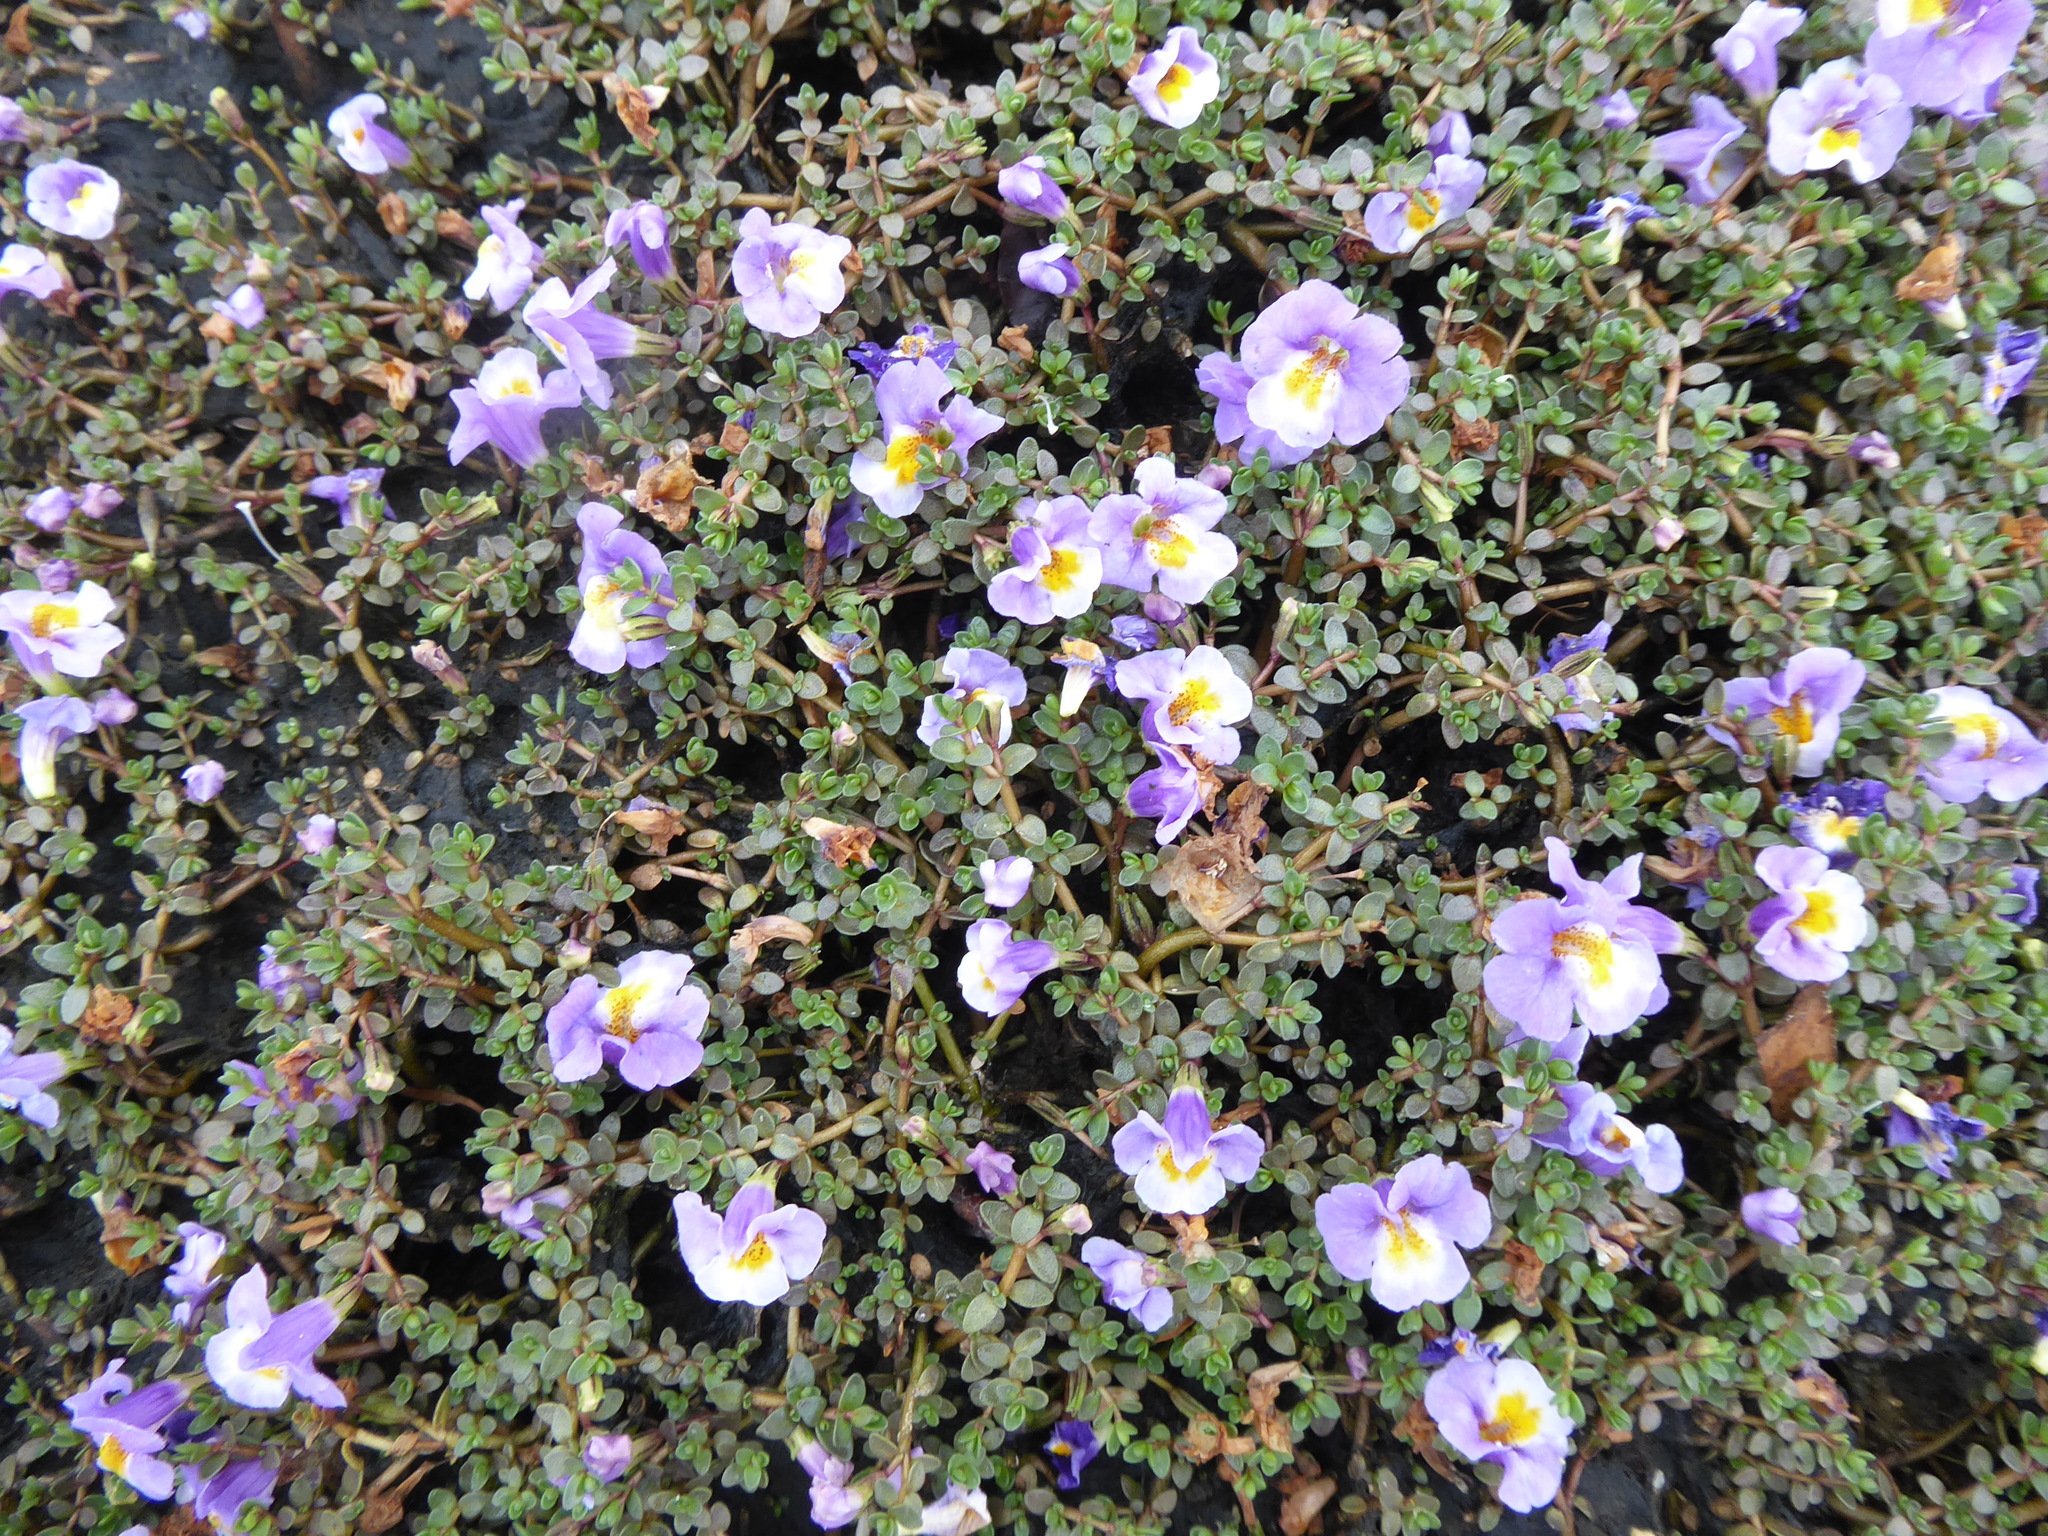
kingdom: Plantae
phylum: Tracheophyta
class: Magnoliopsida
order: Lamiales
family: Phrymaceae
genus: Thyridia
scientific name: Thyridia repens
